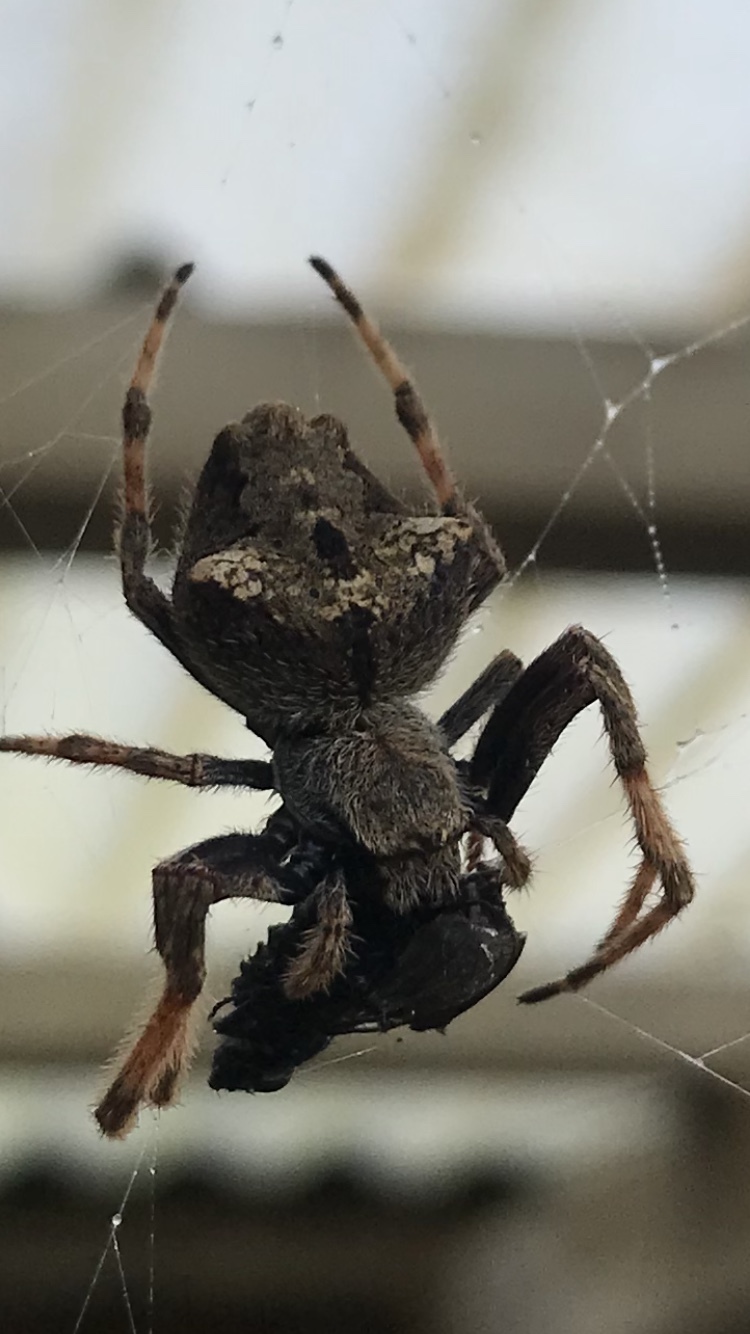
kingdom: Animalia
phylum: Arthropoda
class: Arachnida
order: Araneae
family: Araneidae
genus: Eriophora
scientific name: Eriophora pustulosa
